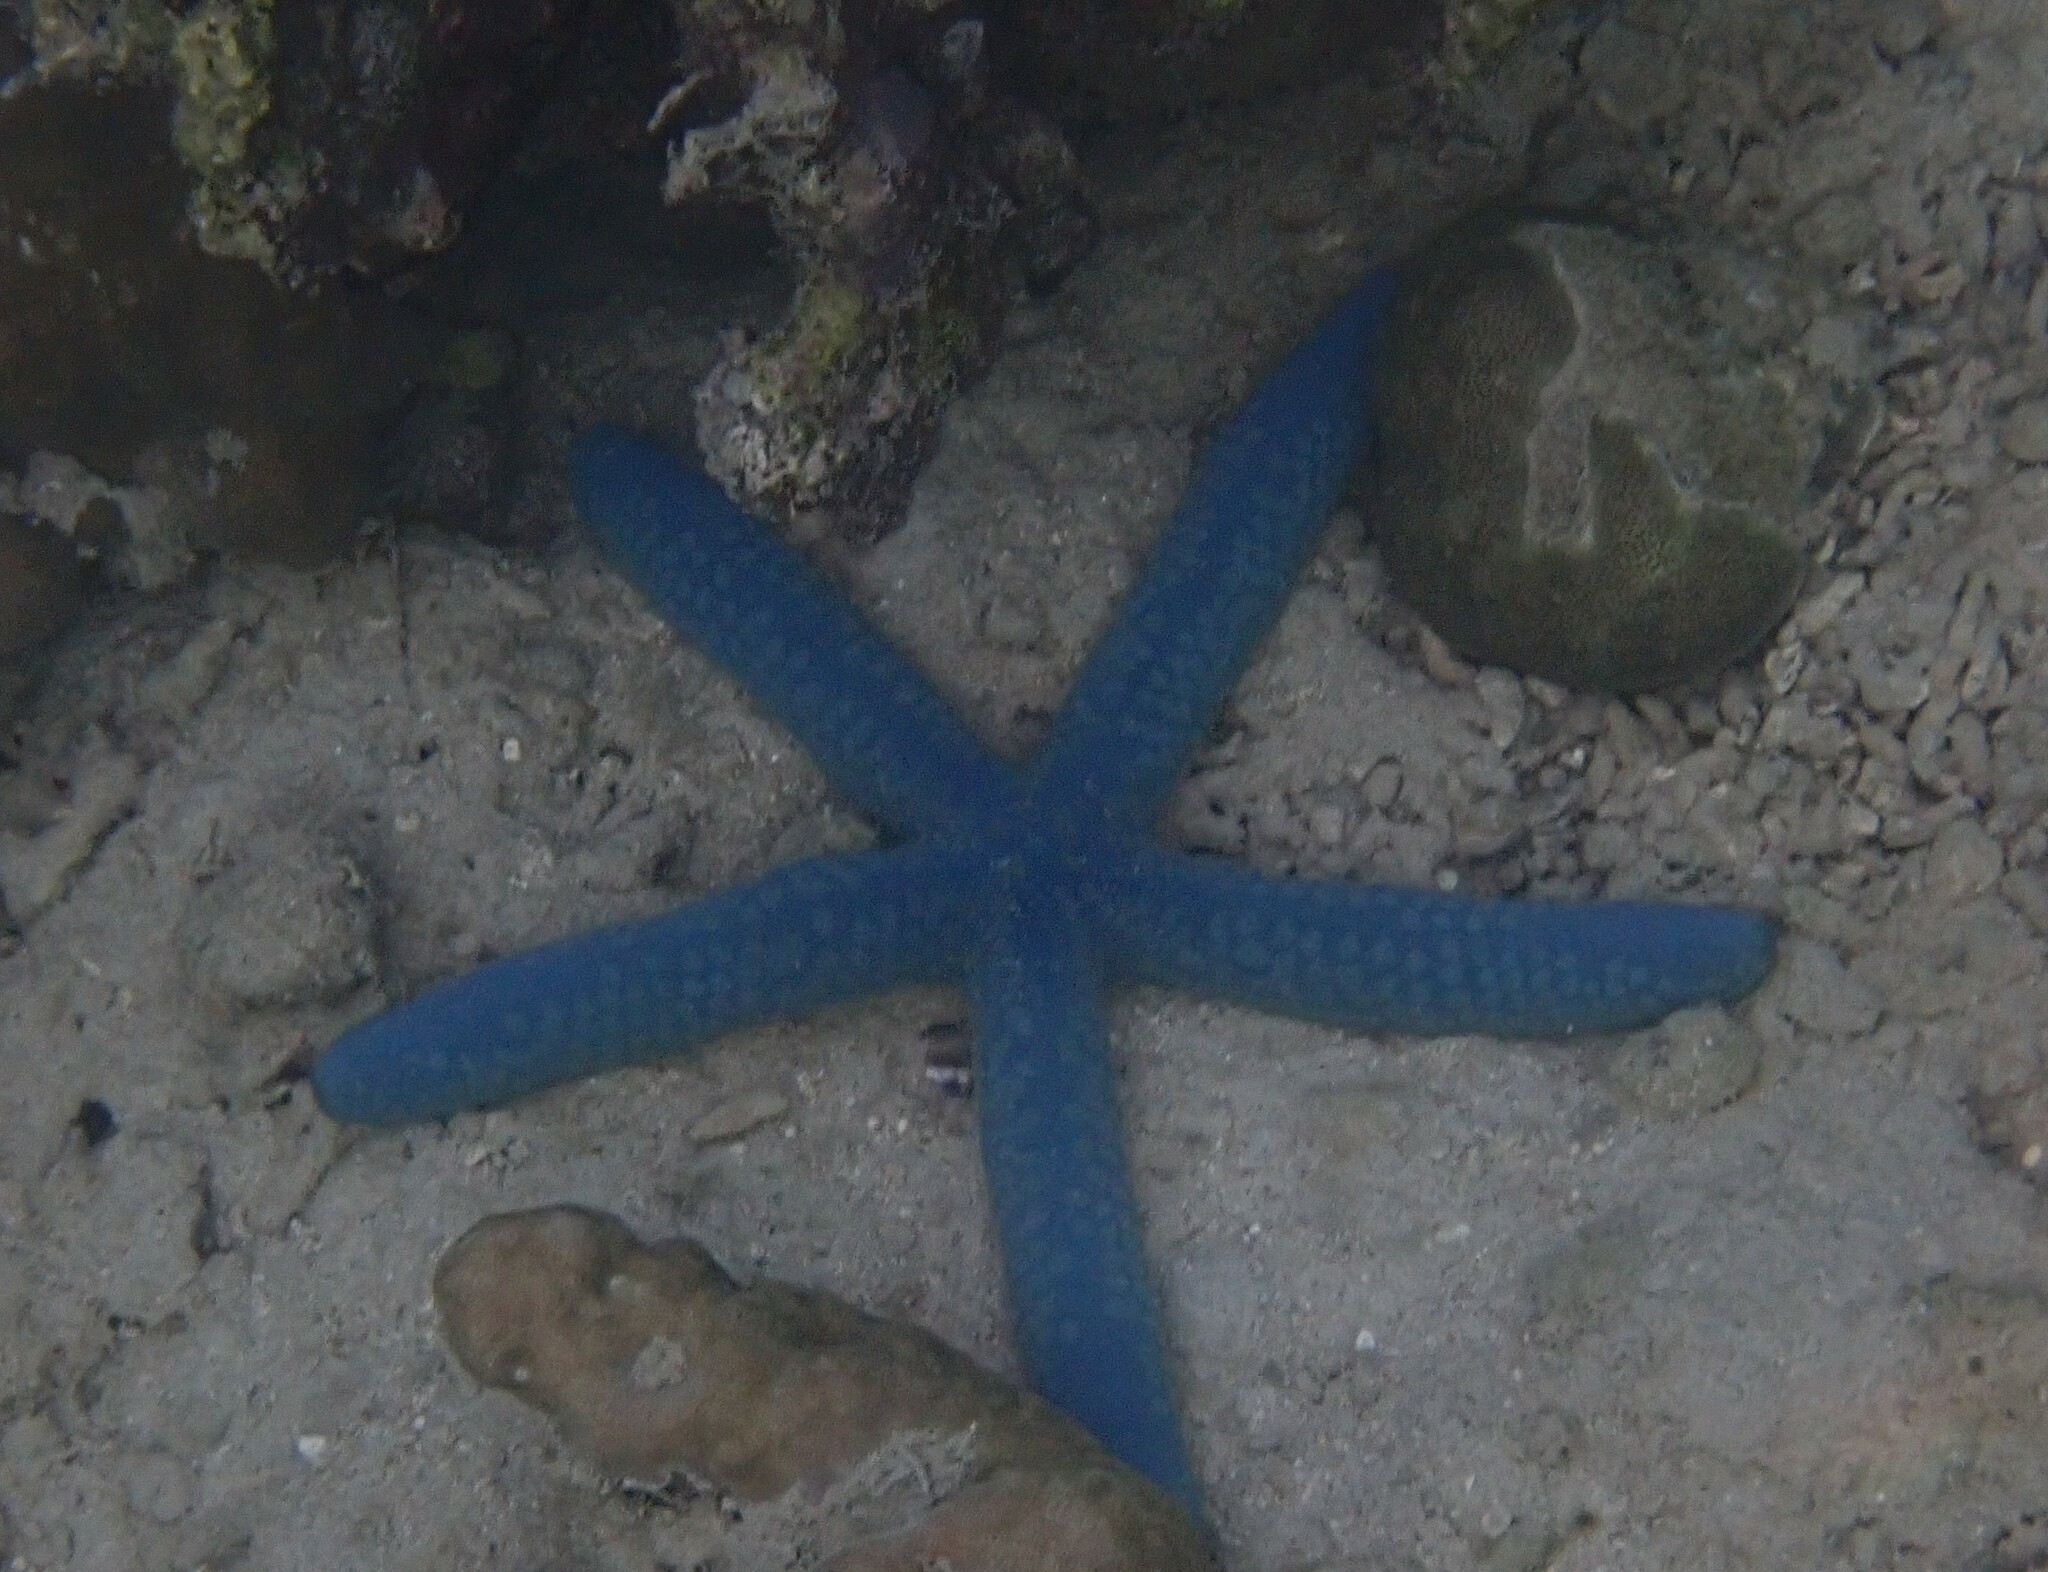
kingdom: Animalia
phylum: Echinodermata
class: Asteroidea
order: Valvatida
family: Ophidiasteridae
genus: Linckia
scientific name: Linckia laevigata
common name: Azure sea star
